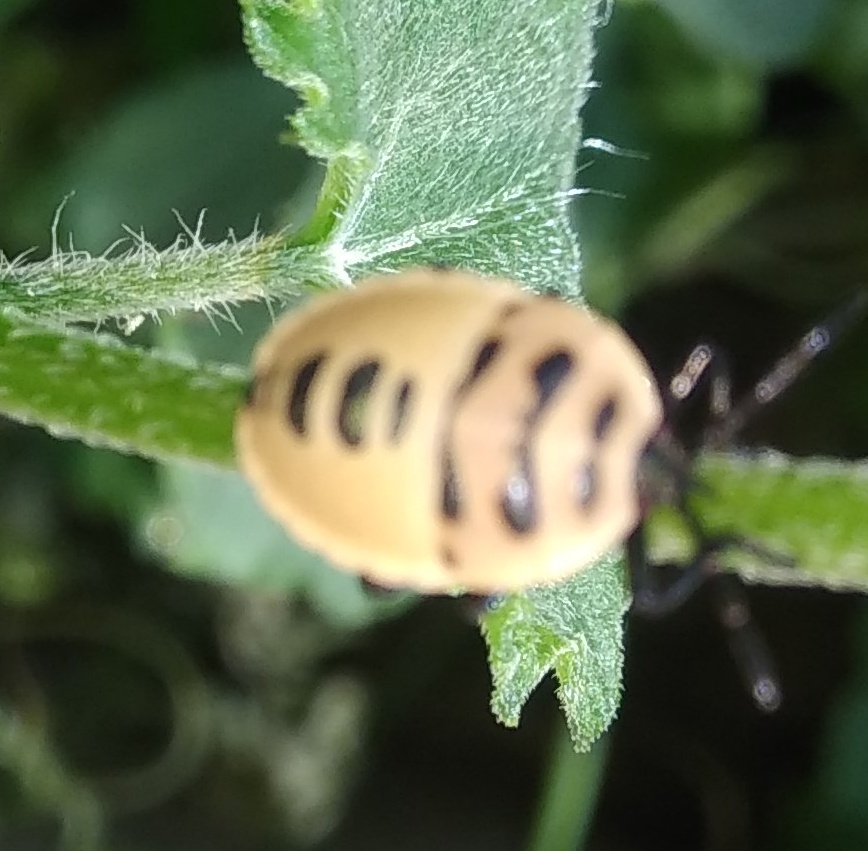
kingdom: Animalia
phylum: Arthropoda
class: Insecta
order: Hemiptera
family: Dinidoridae
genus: Coridius
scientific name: Coridius ianus
